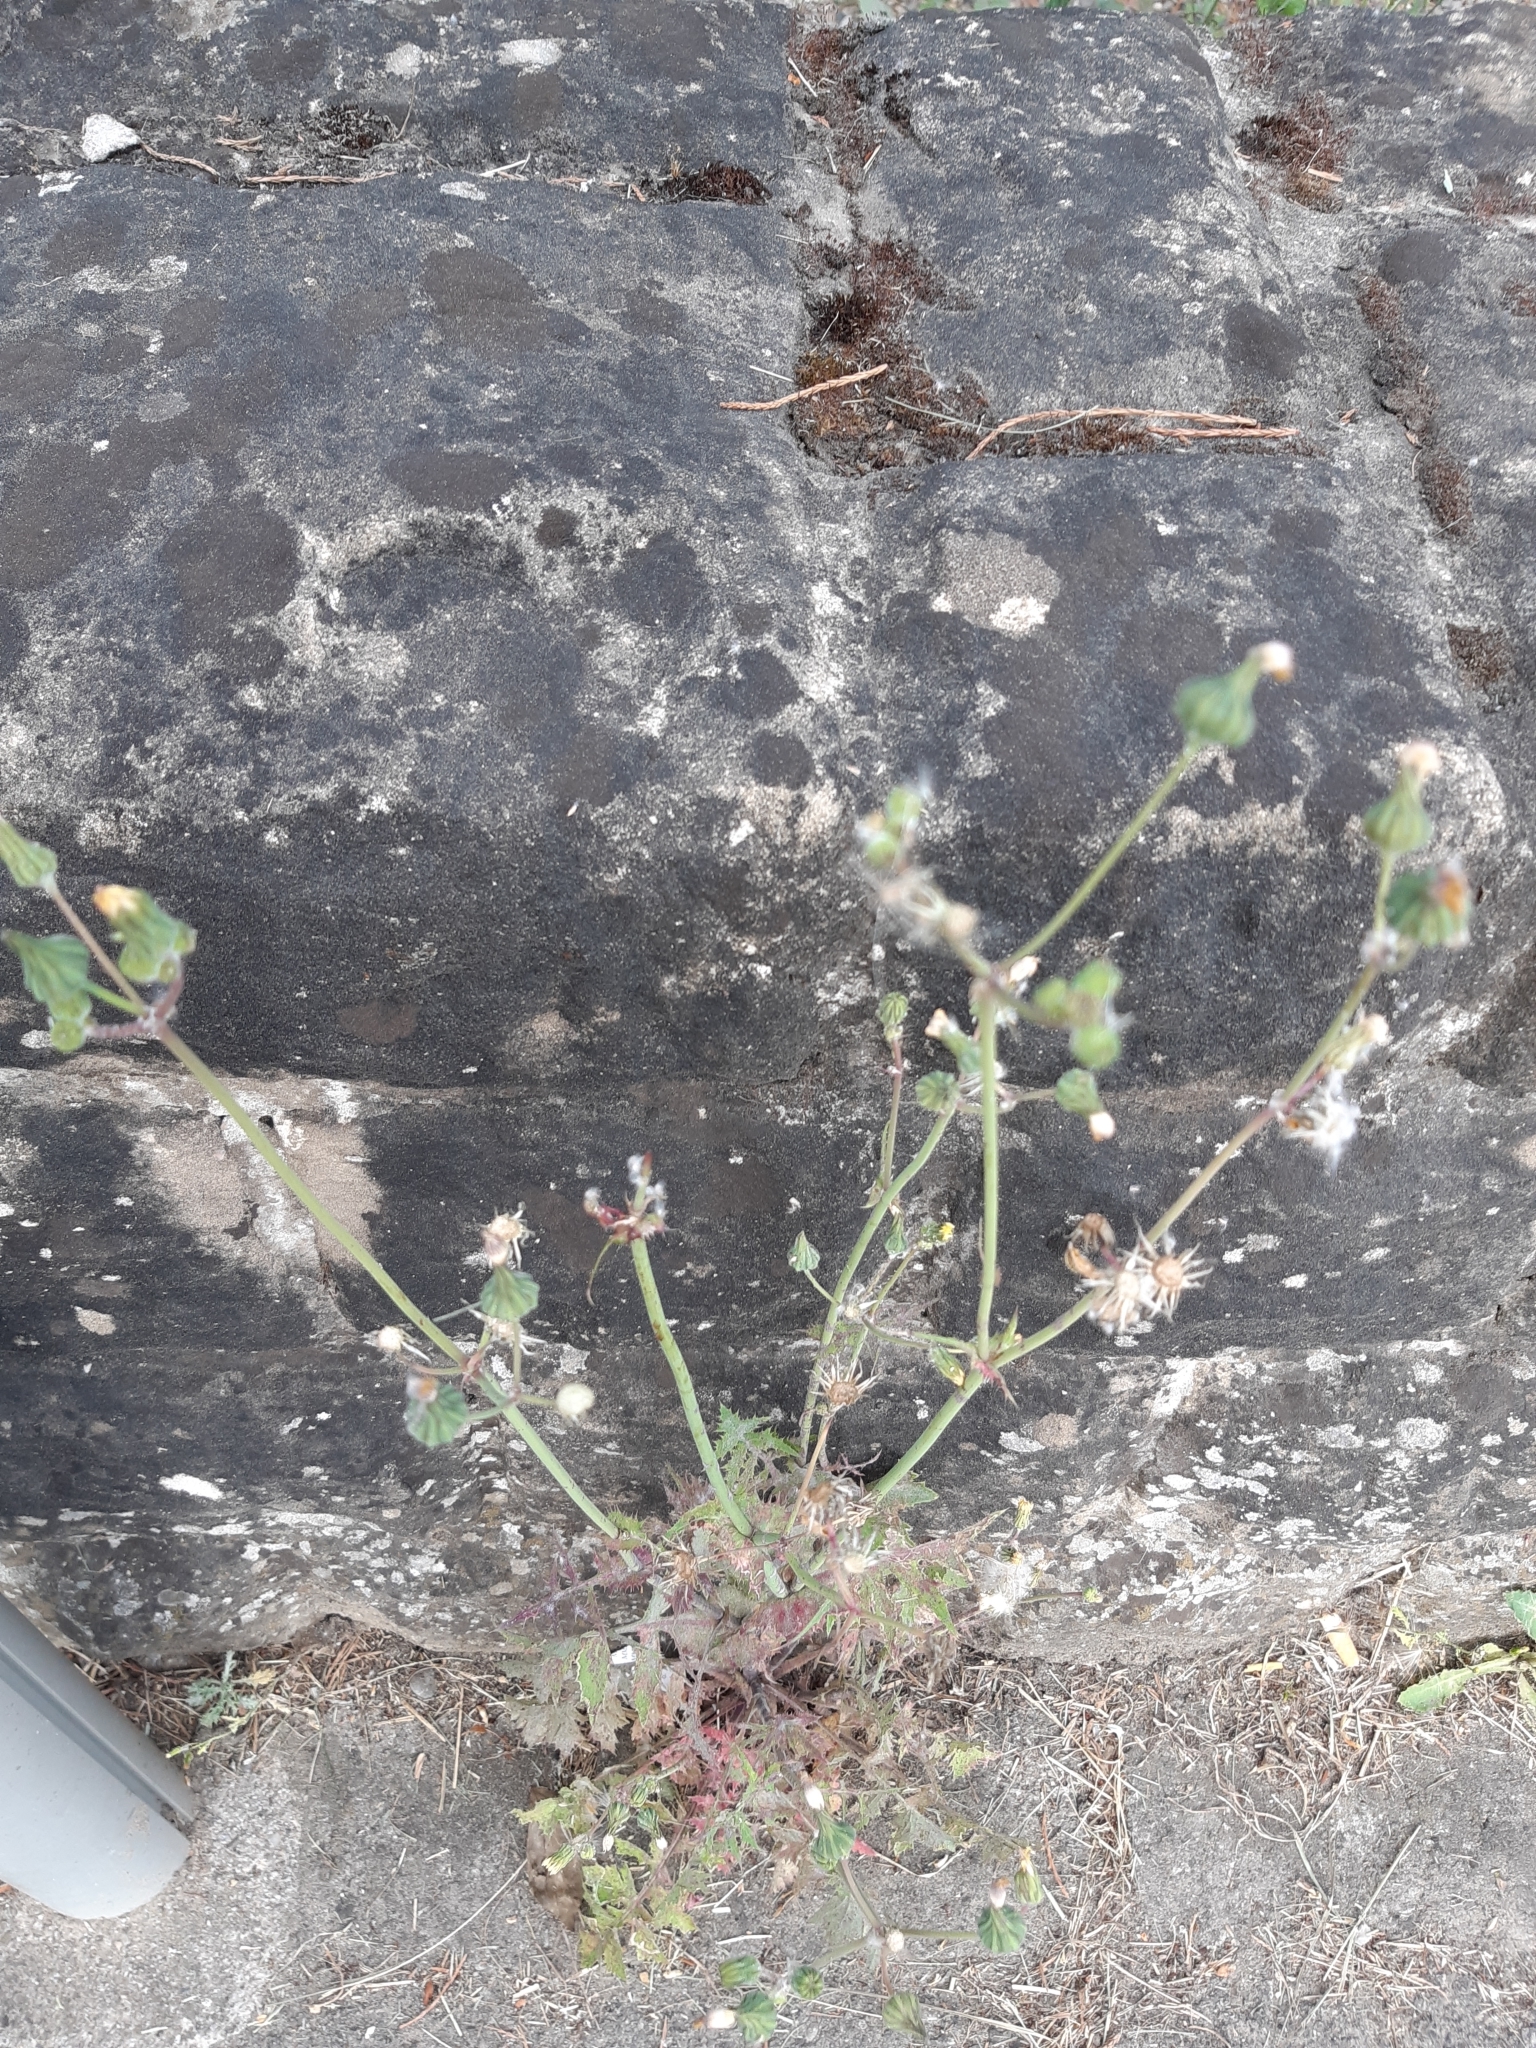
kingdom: Plantae
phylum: Tracheophyta
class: Magnoliopsida
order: Asterales
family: Asteraceae
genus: Sonchus
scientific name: Sonchus oleraceus
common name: Common sowthistle
